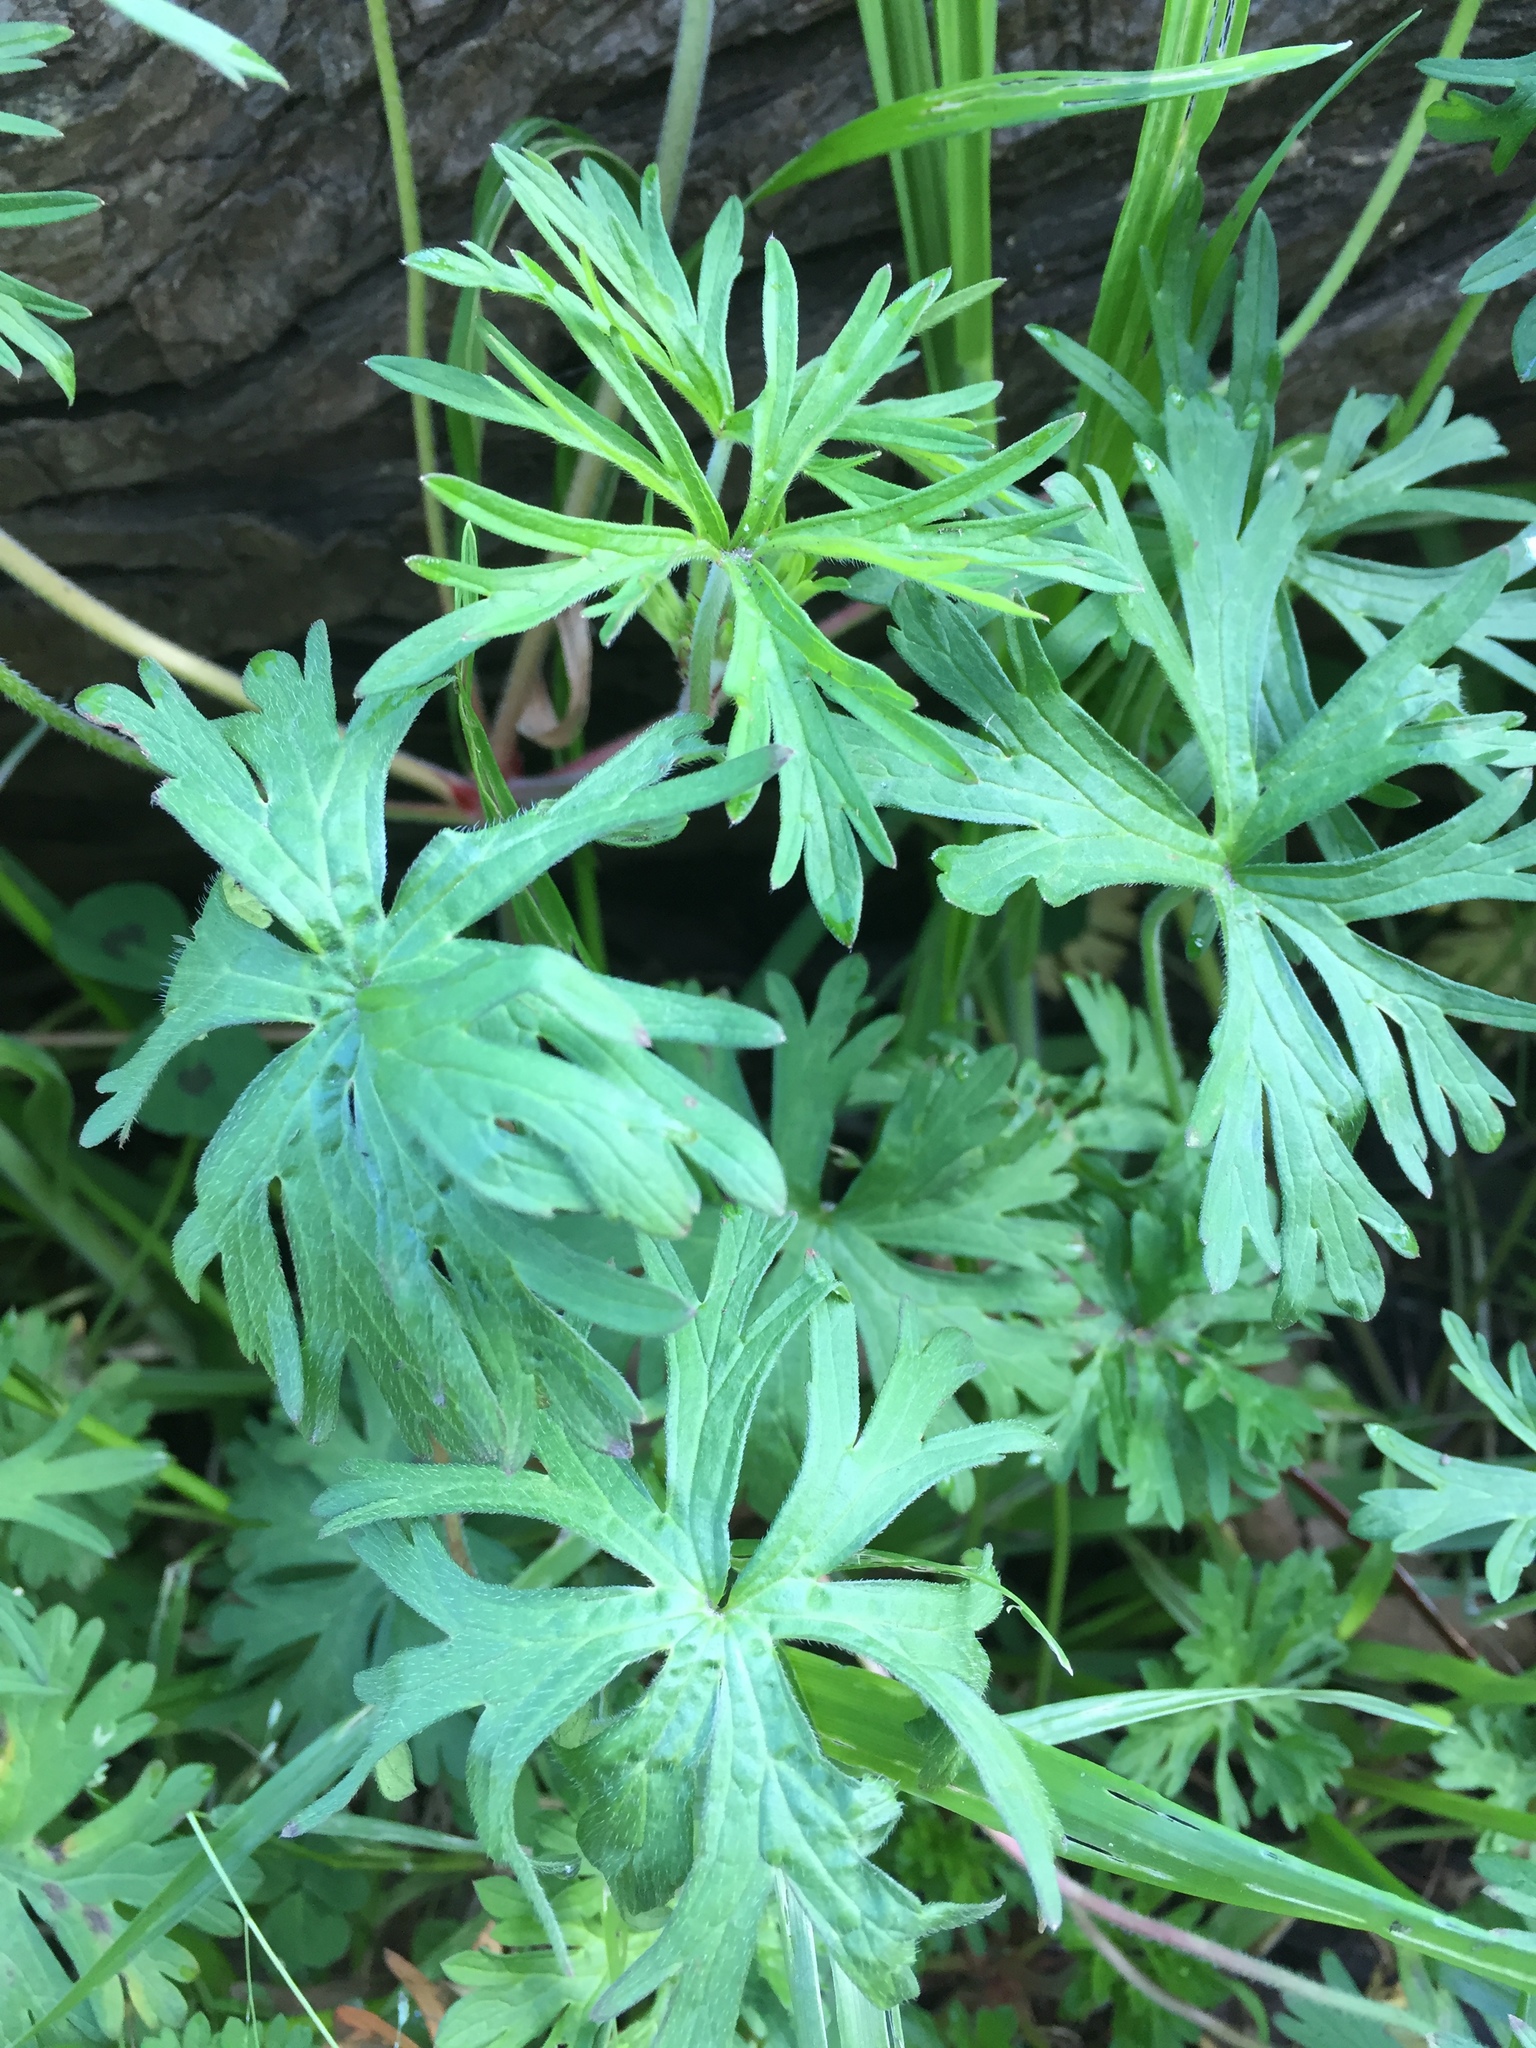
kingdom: Plantae
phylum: Tracheophyta
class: Magnoliopsida
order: Geraniales
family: Geraniaceae
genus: Geranium
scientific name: Geranium dissectum
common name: Cut-leaved crane's-bill
